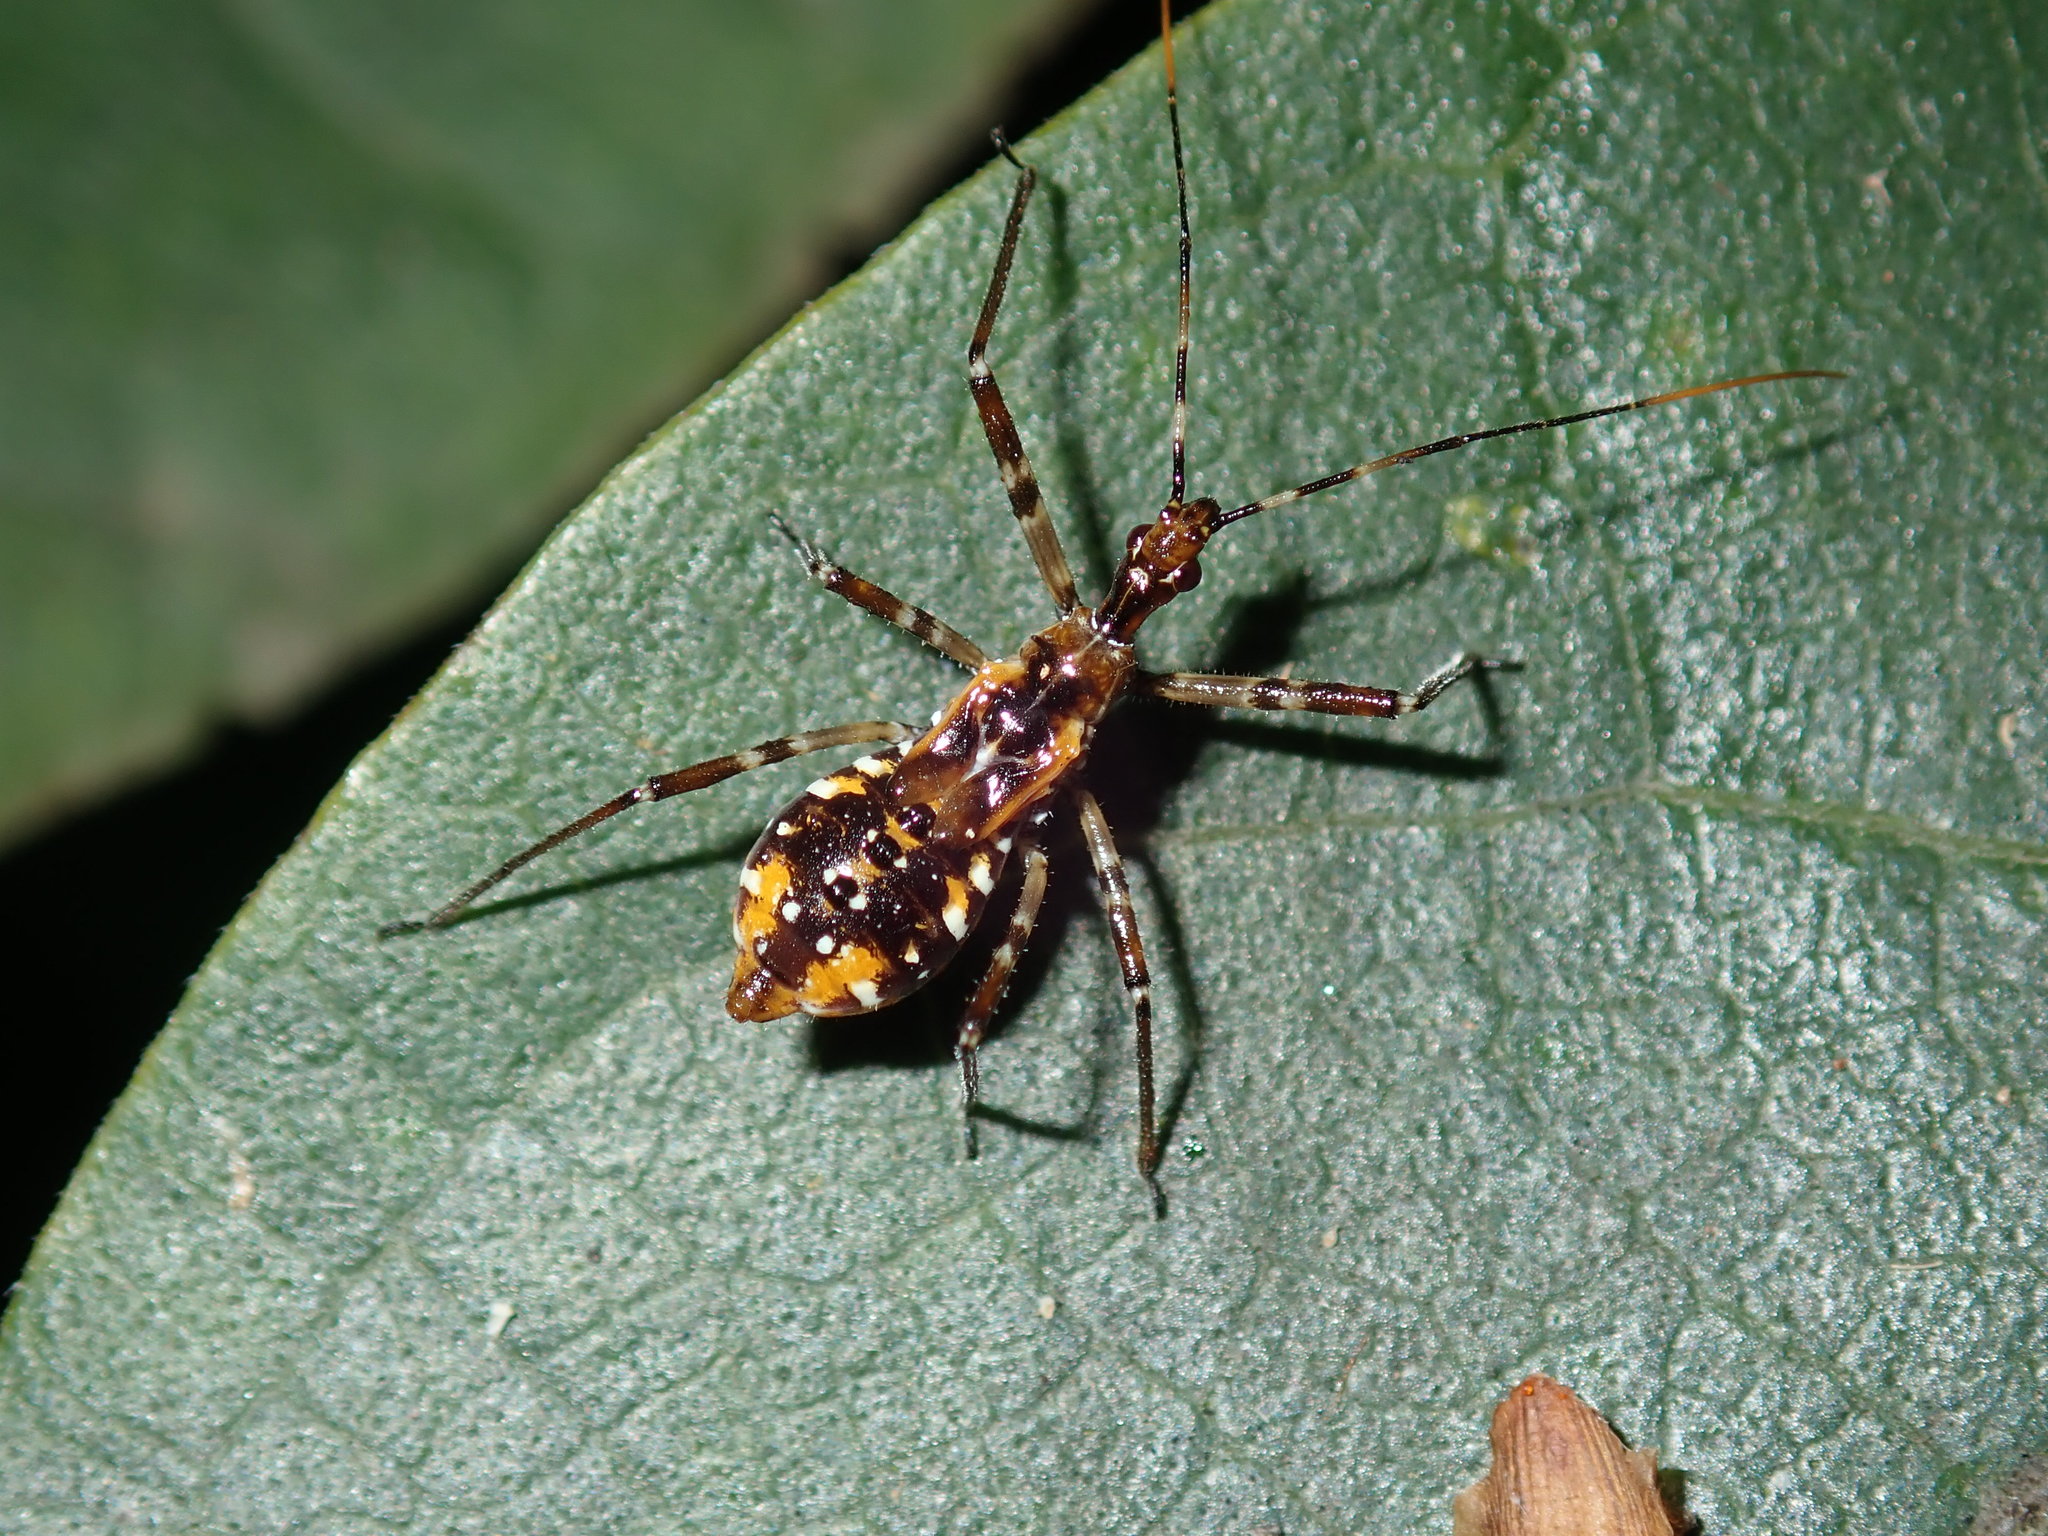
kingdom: Animalia
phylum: Arthropoda
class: Insecta
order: Hemiptera
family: Reduviidae
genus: Pristhesancus
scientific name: Pristhesancus plagipennis
